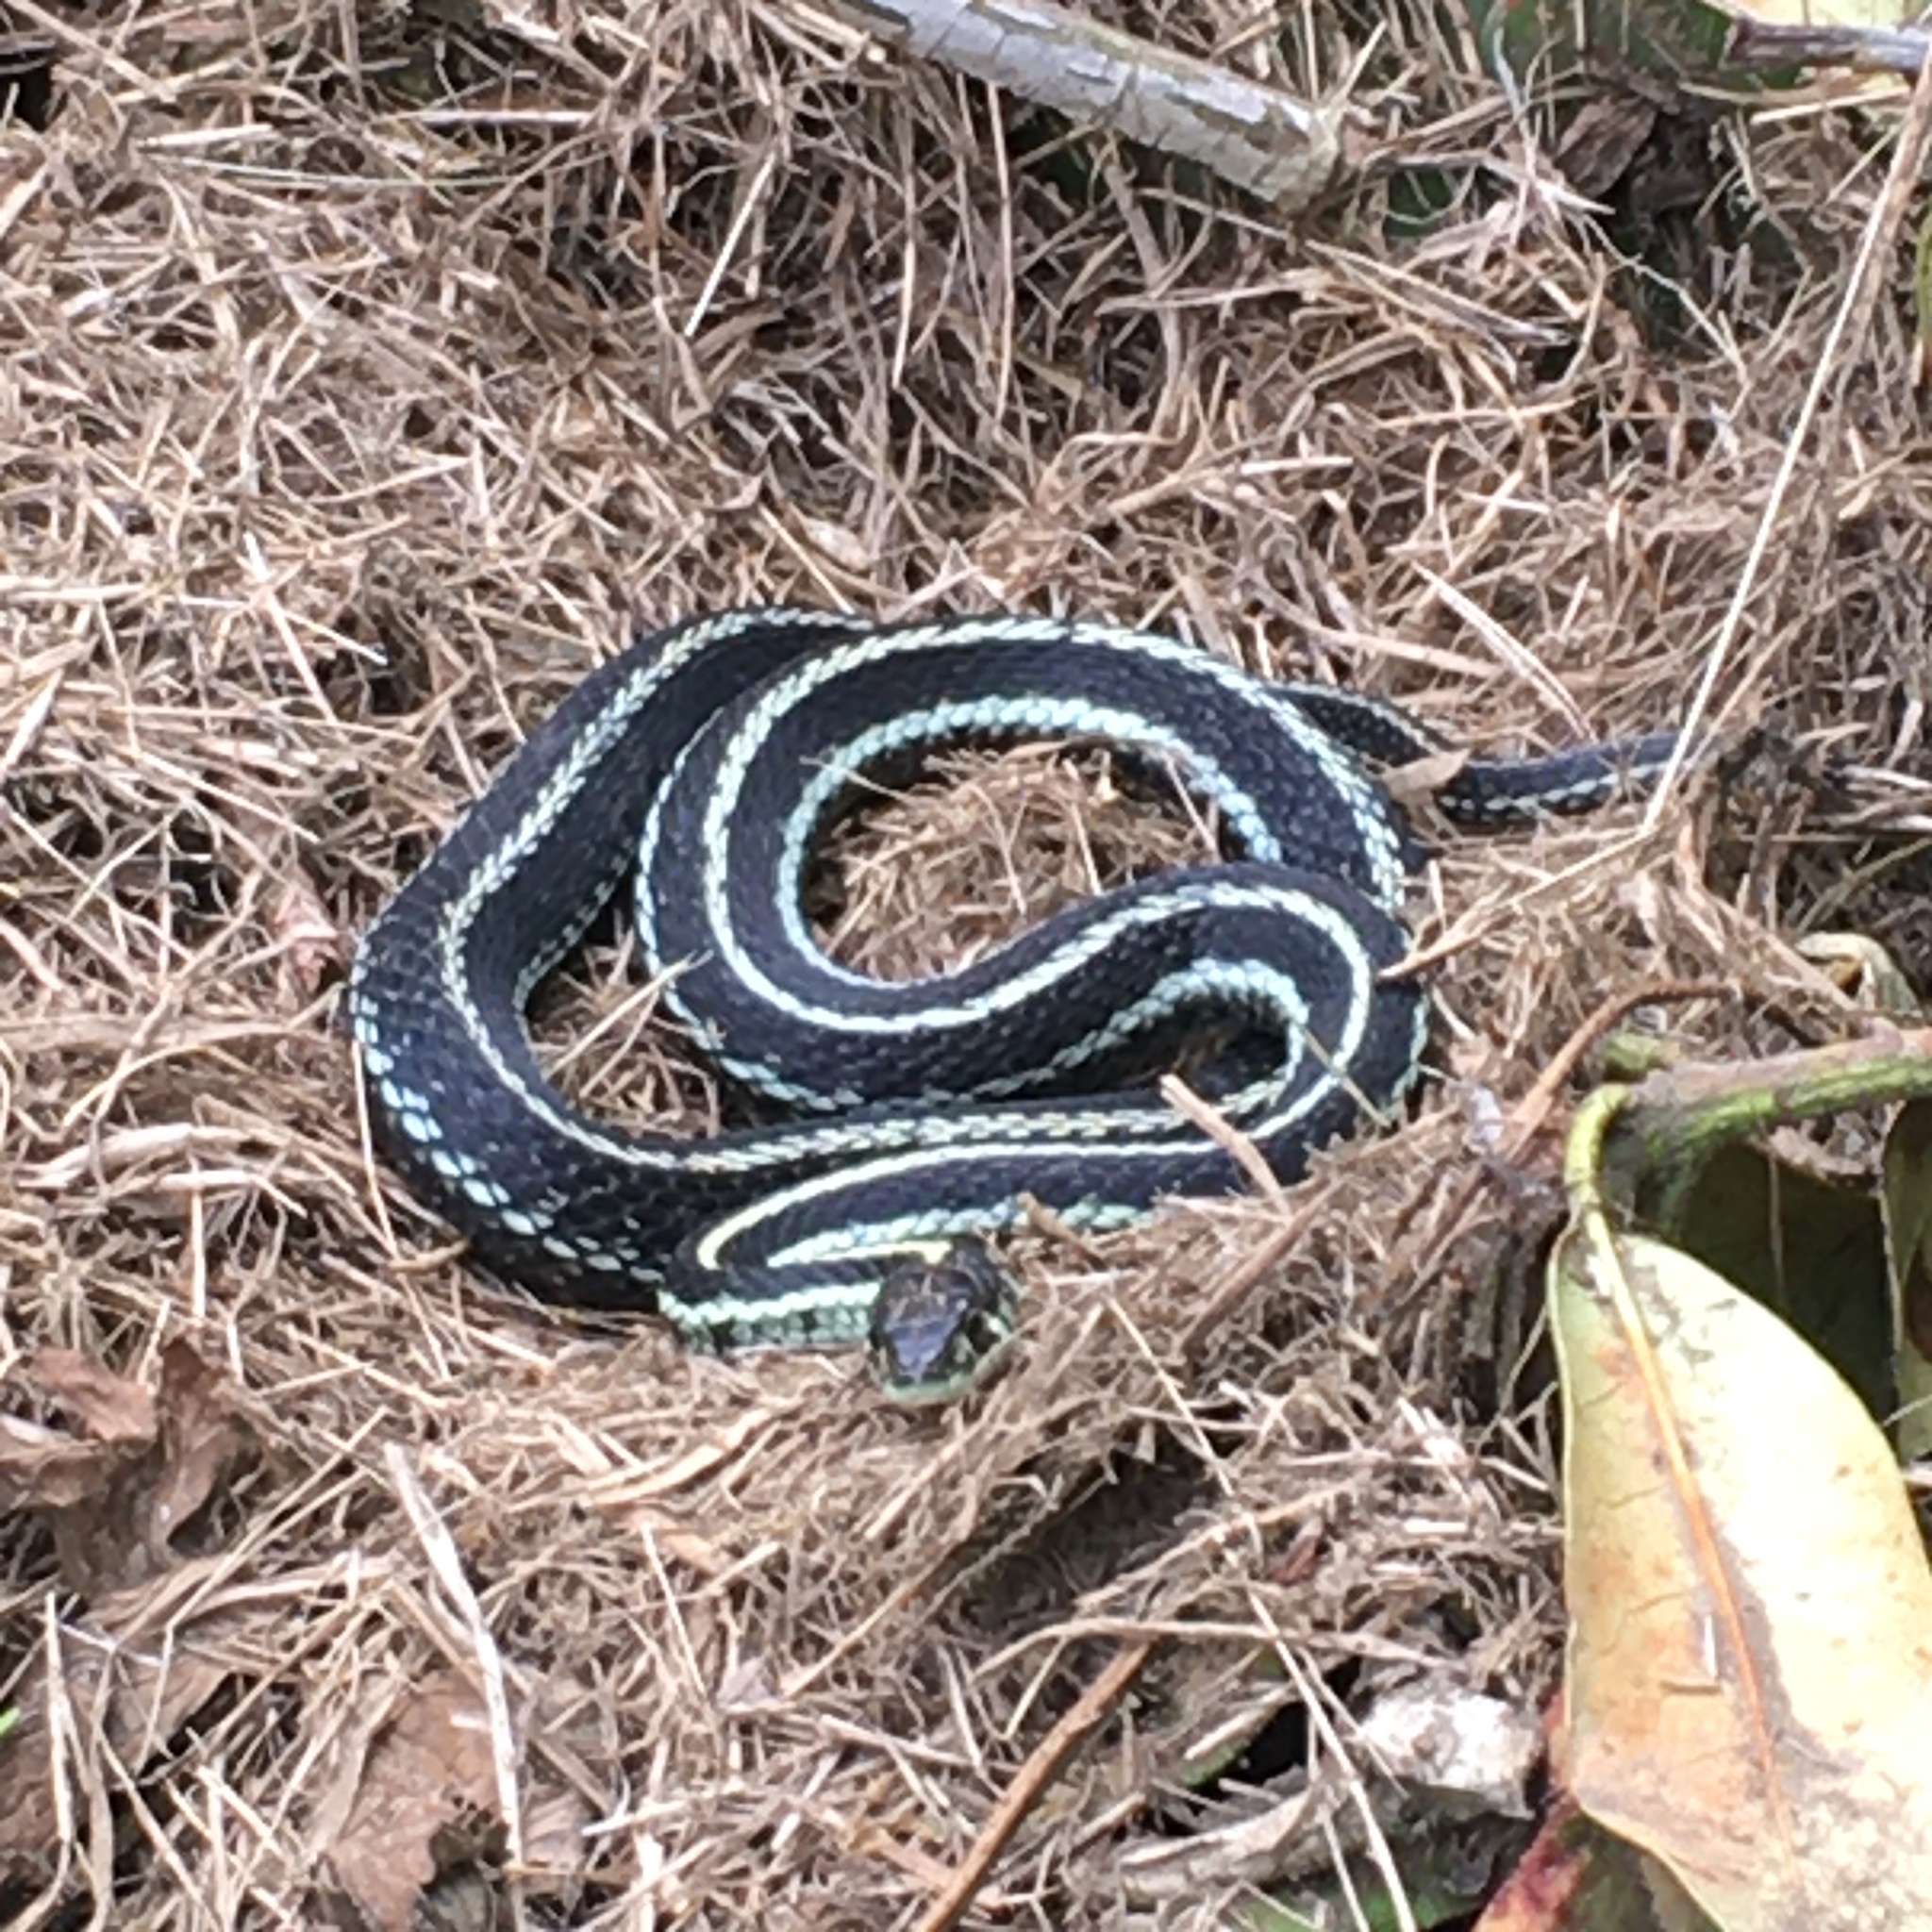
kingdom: Animalia
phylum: Chordata
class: Squamata
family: Colubridae
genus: Thamnophis
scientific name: Thamnophis sirtalis
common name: Common garter snake
